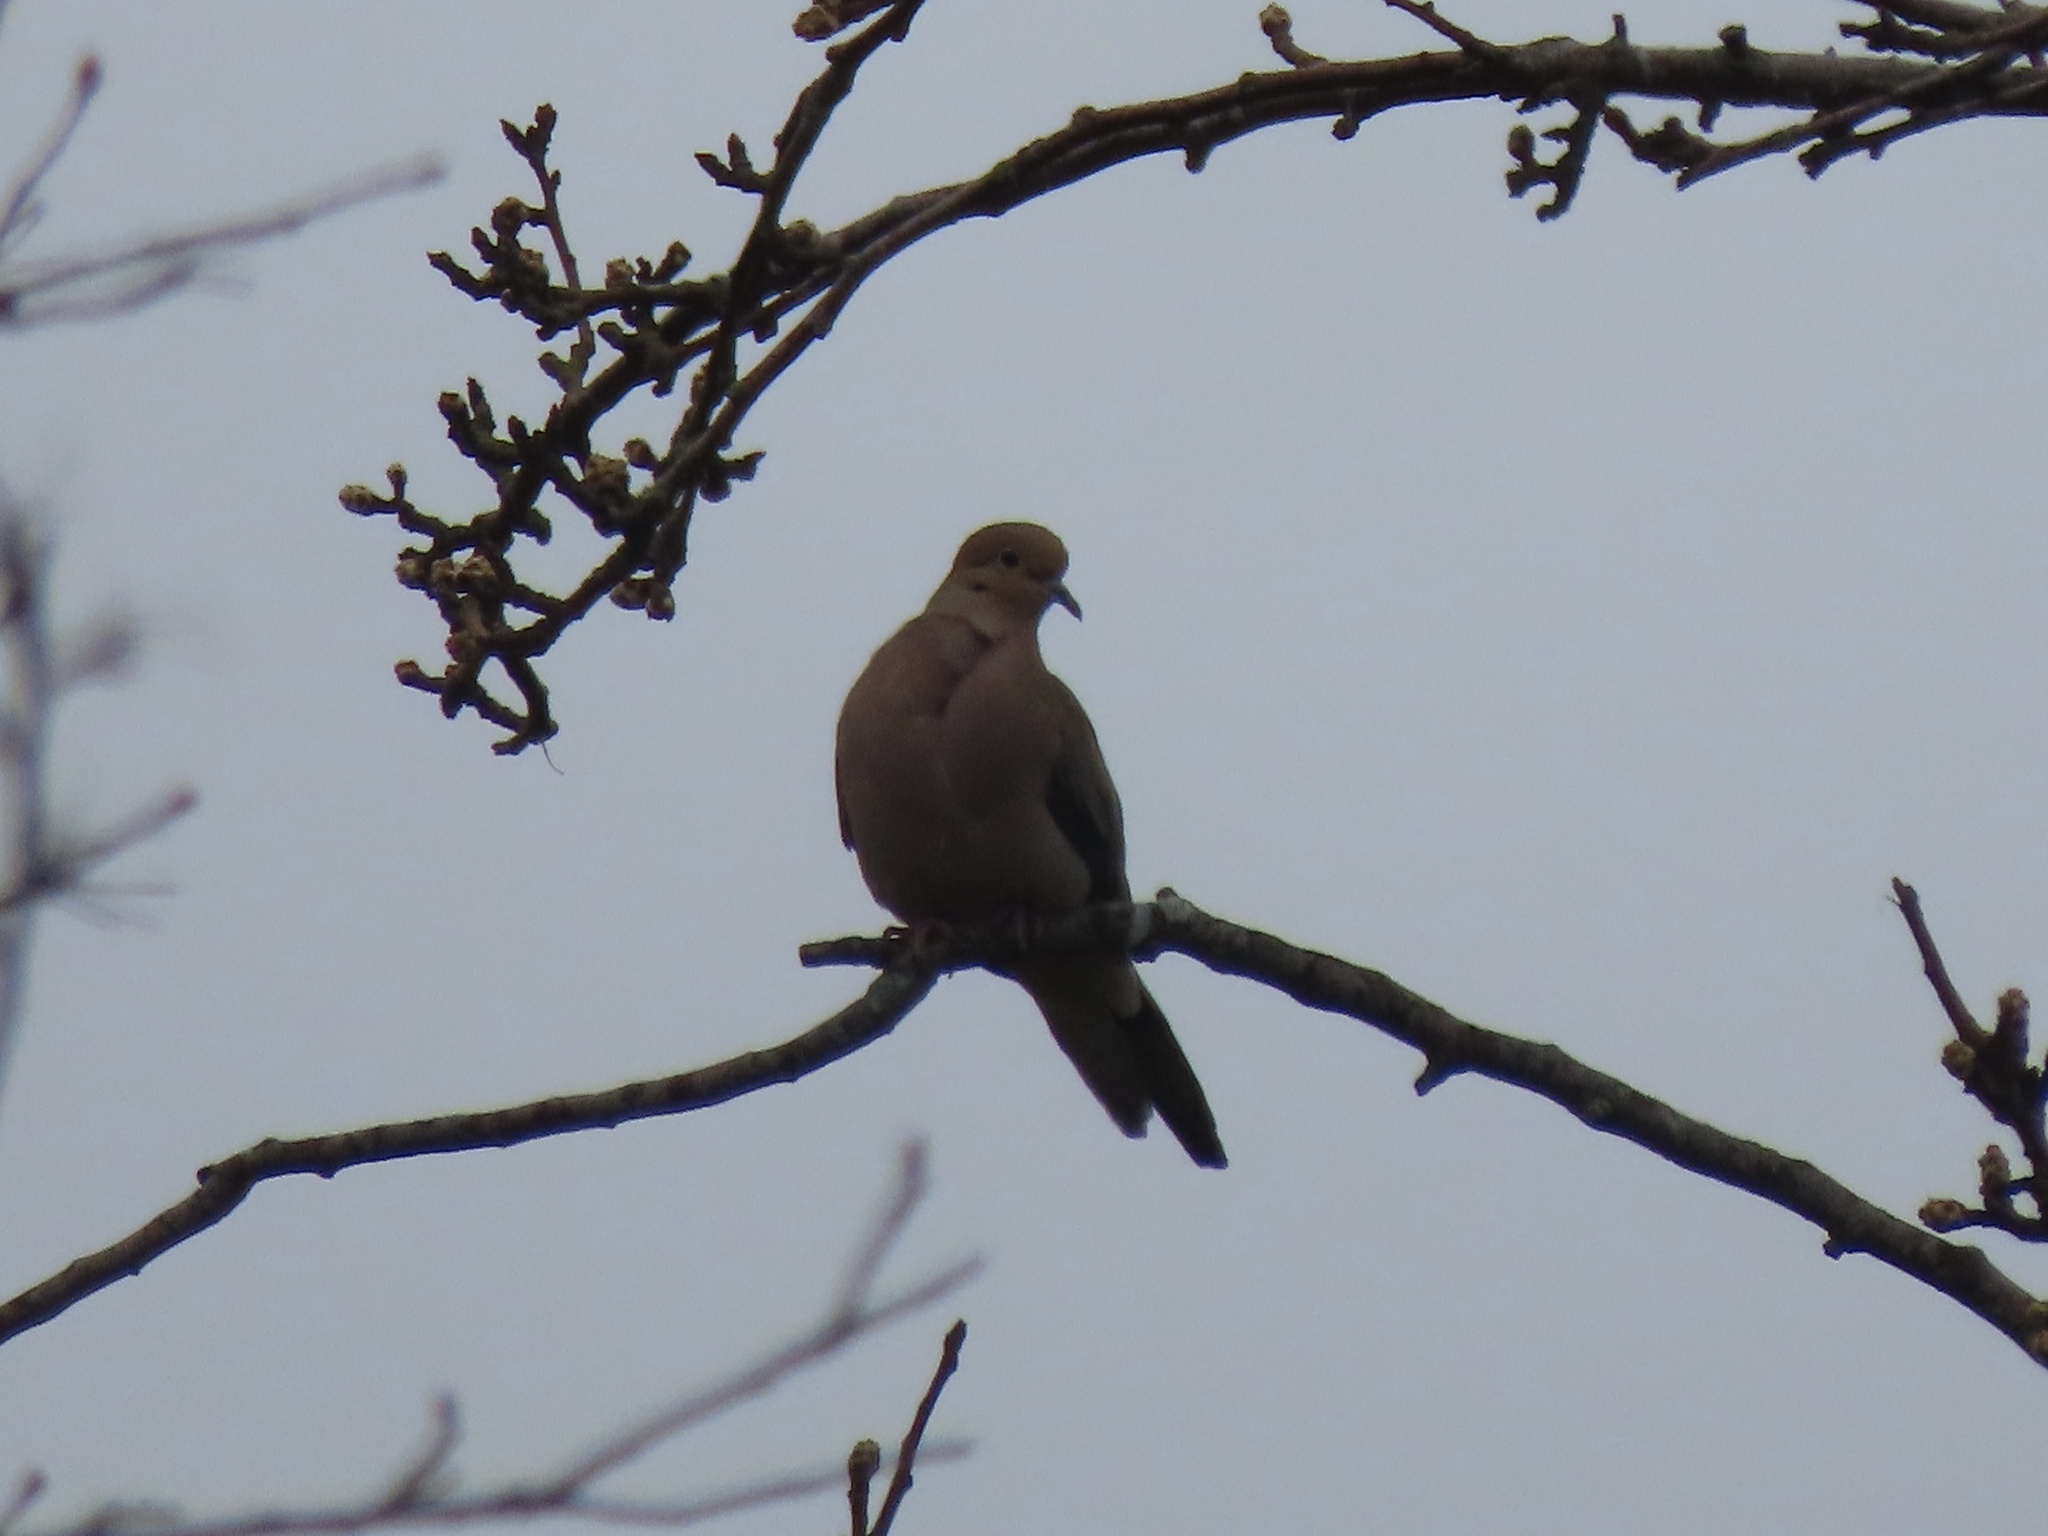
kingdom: Animalia
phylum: Chordata
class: Aves
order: Columbiformes
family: Columbidae
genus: Zenaida
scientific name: Zenaida macroura
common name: Mourning dove
